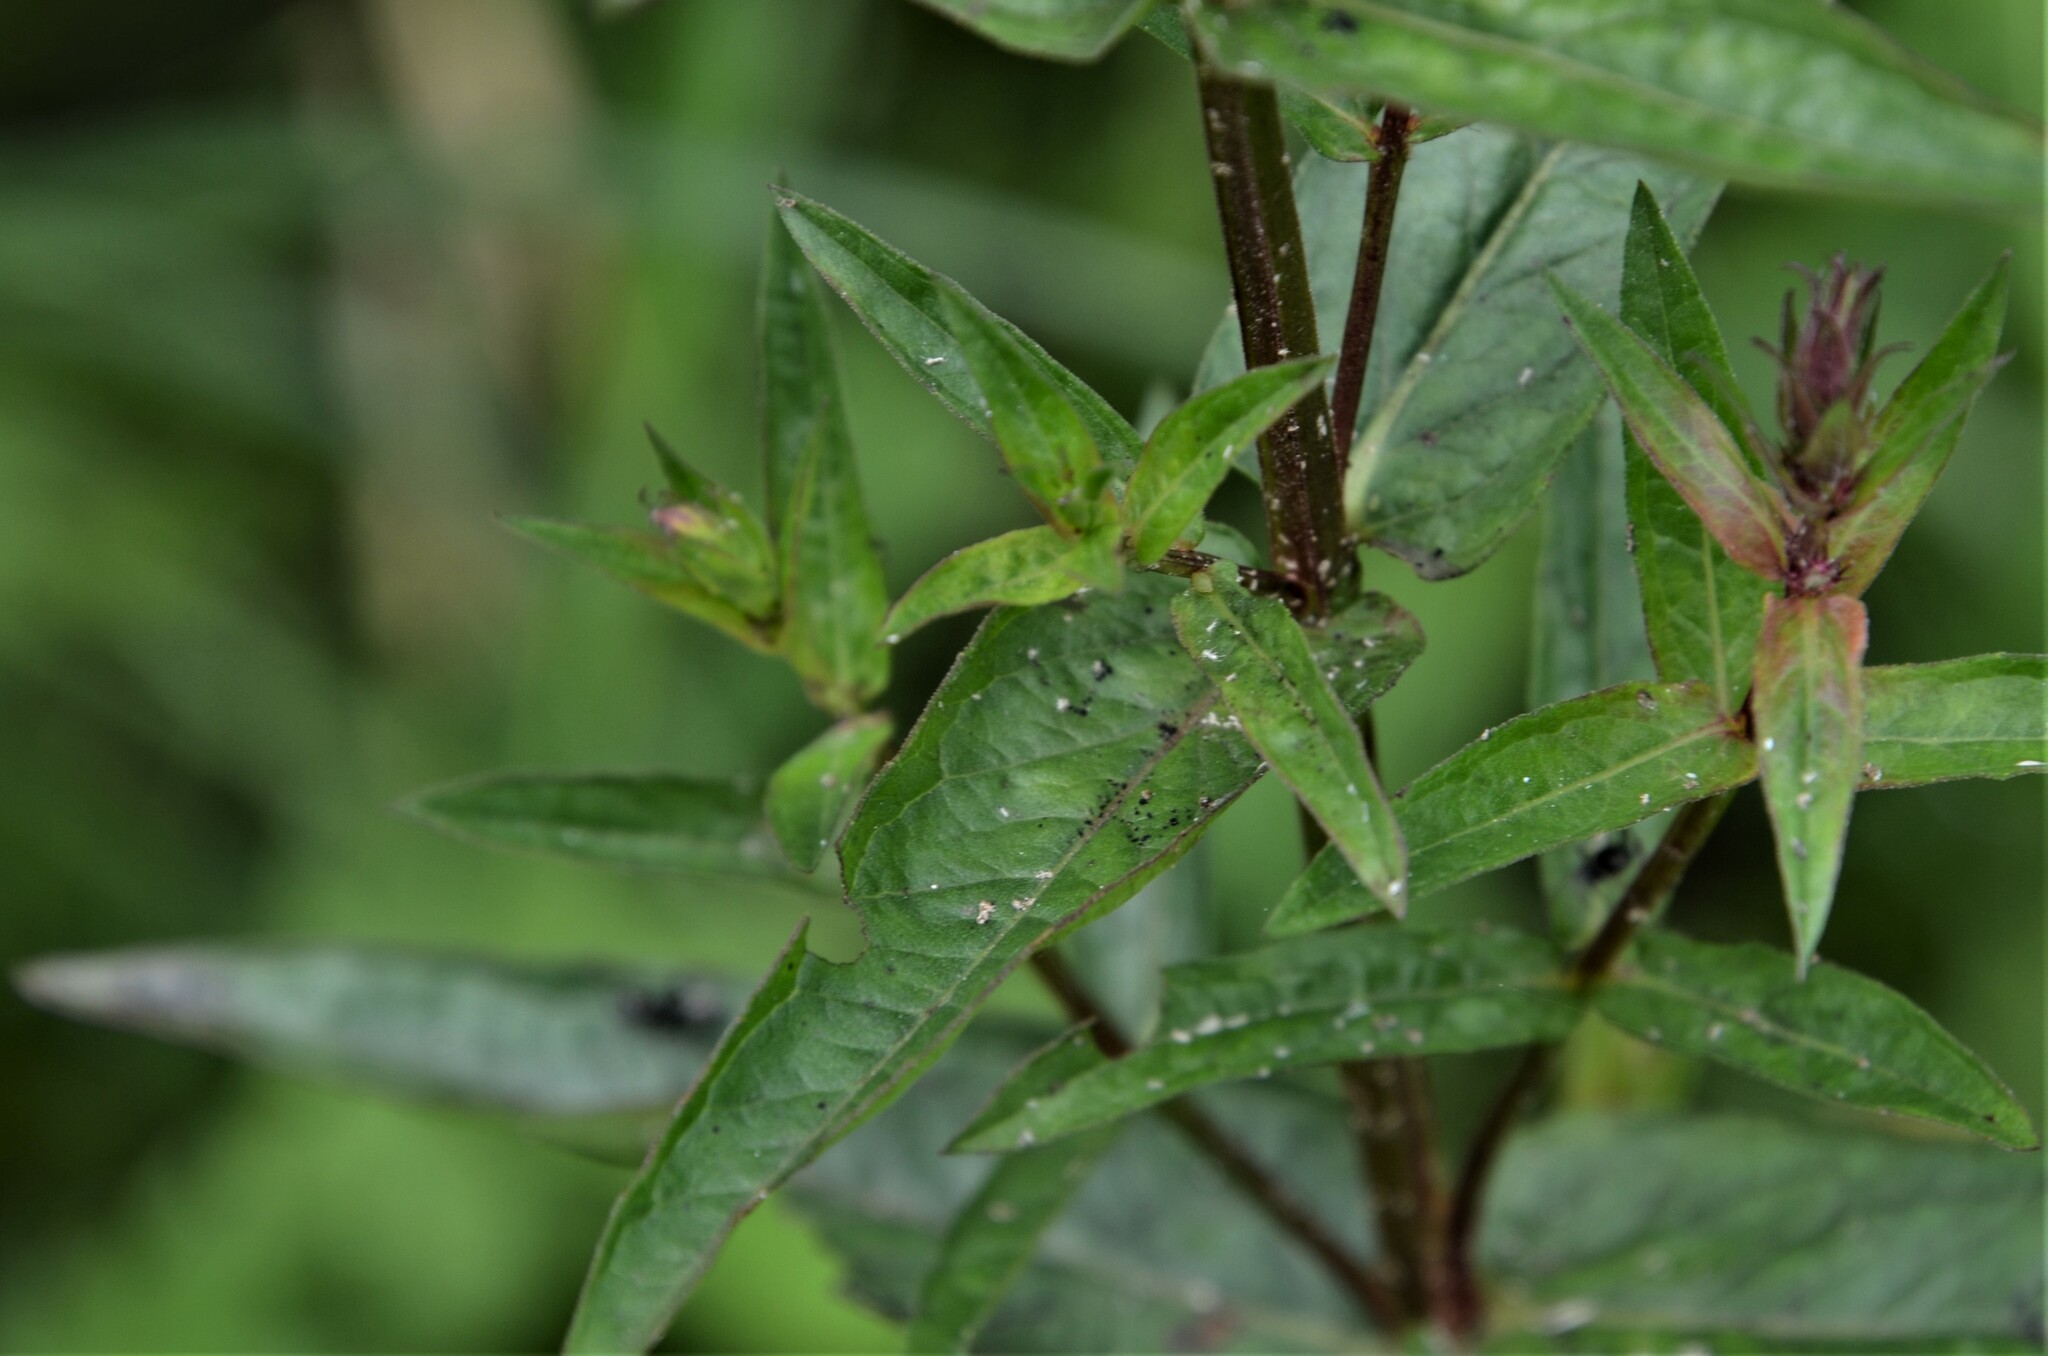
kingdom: Plantae
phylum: Tracheophyta
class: Magnoliopsida
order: Myrtales
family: Lythraceae
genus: Lythrum
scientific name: Lythrum salicaria
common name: Purple loosestrife
